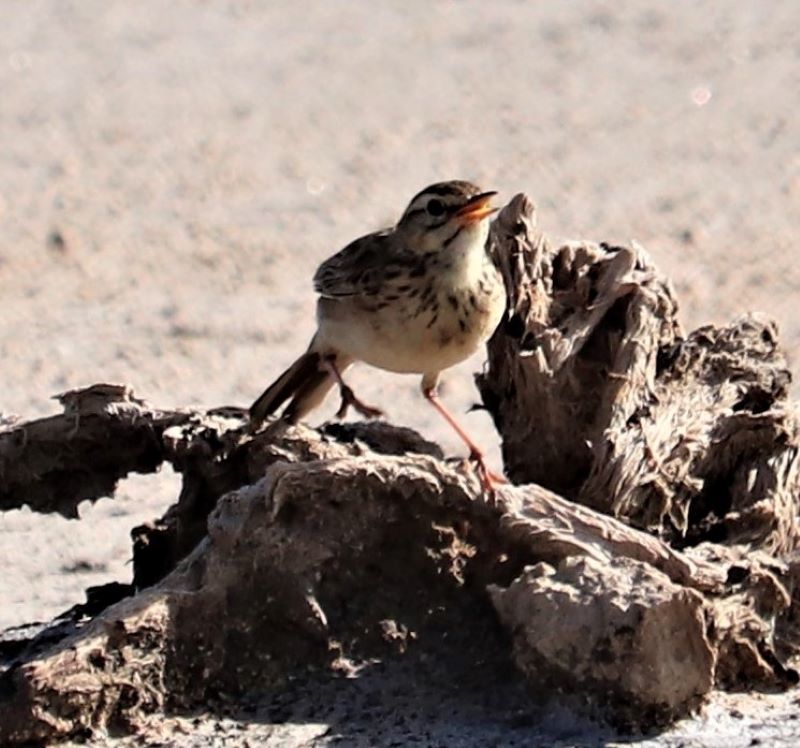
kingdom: Animalia
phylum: Chordata
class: Aves
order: Passeriformes
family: Motacillidae
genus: Anthus
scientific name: Anthus cinnamomeus
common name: African pipit
